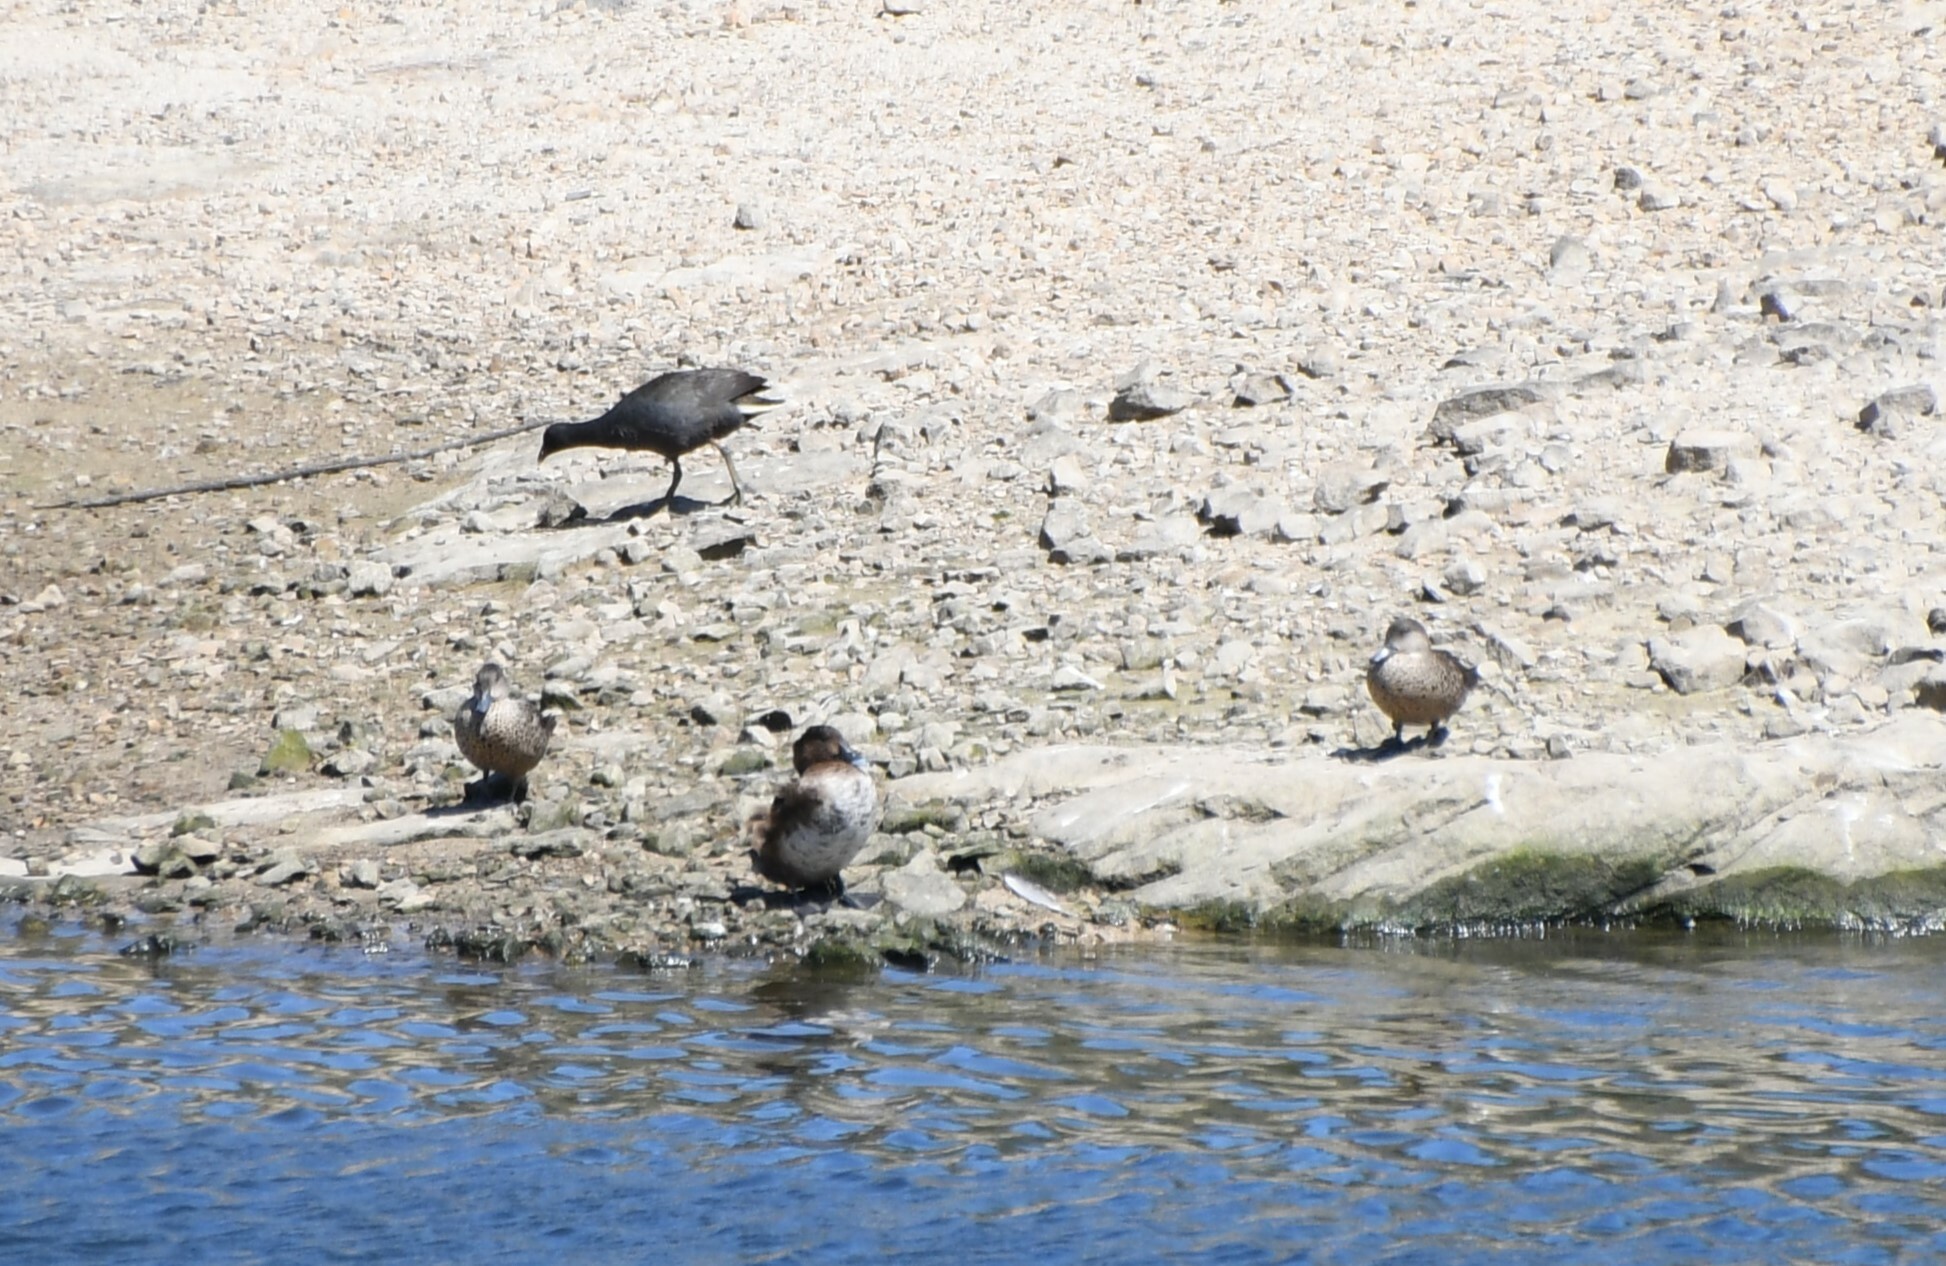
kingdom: Animalia
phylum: Chordata
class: Aves
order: Anseriformes
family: Anatidae
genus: Anas
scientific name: Anas gracilis
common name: Grey teal
